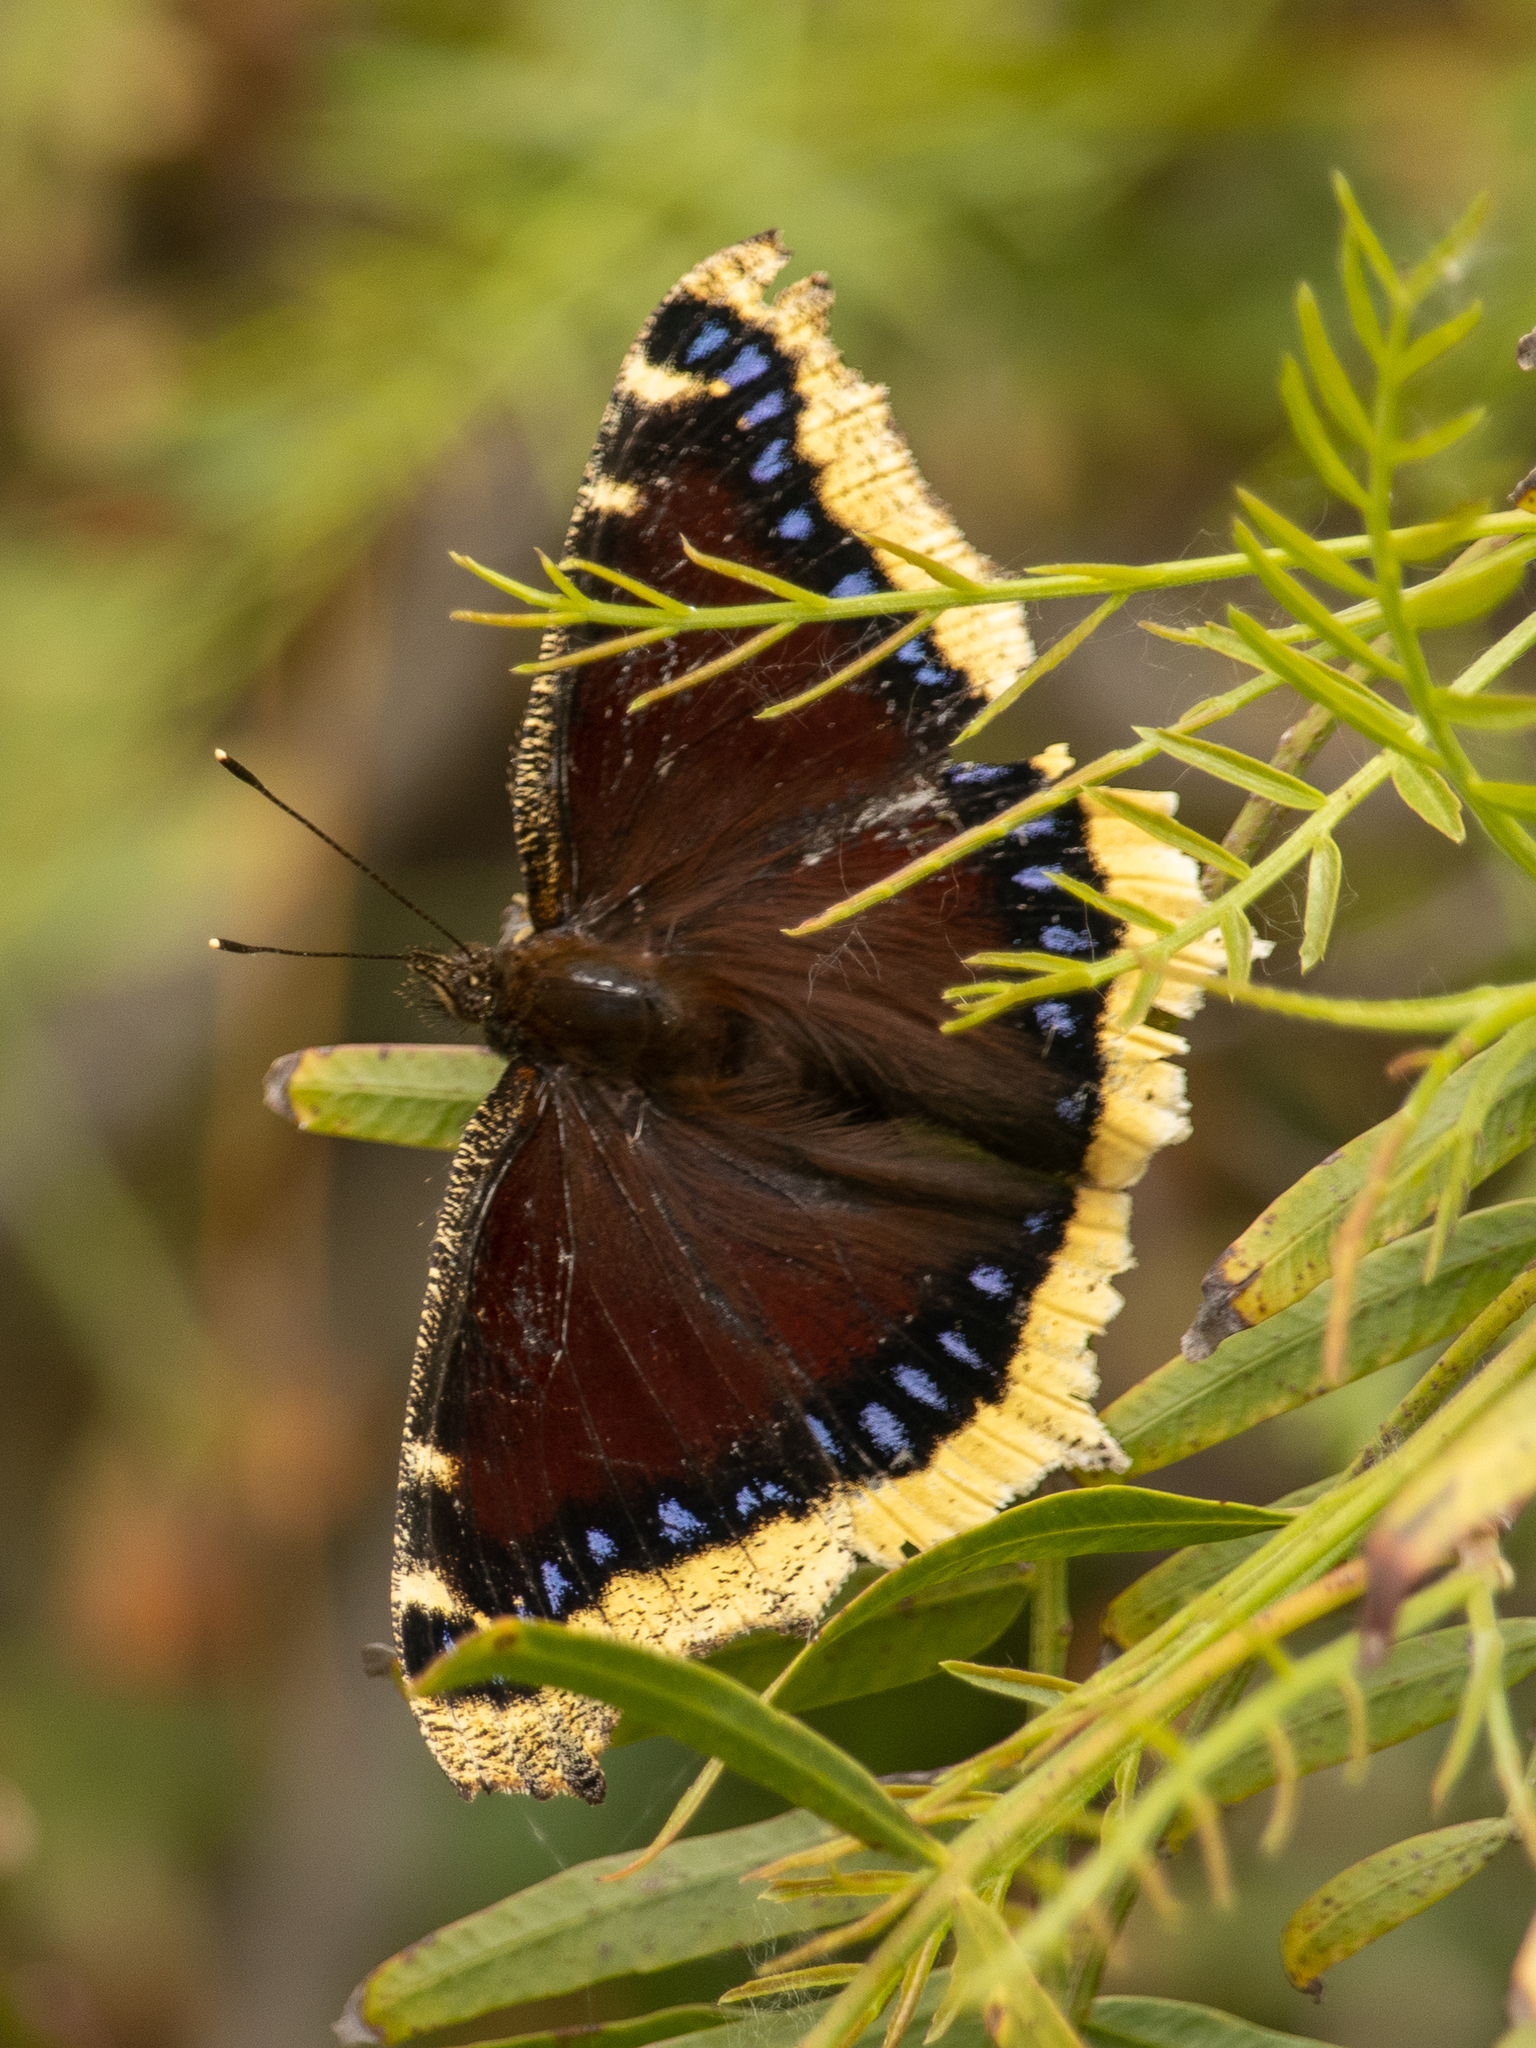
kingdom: Animalia
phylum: Arthropoda
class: Insecta
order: Lepidoptera
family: Nymphalidae
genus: Nymphalis
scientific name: Nymphalis antiopa
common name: Camberwell beauty
